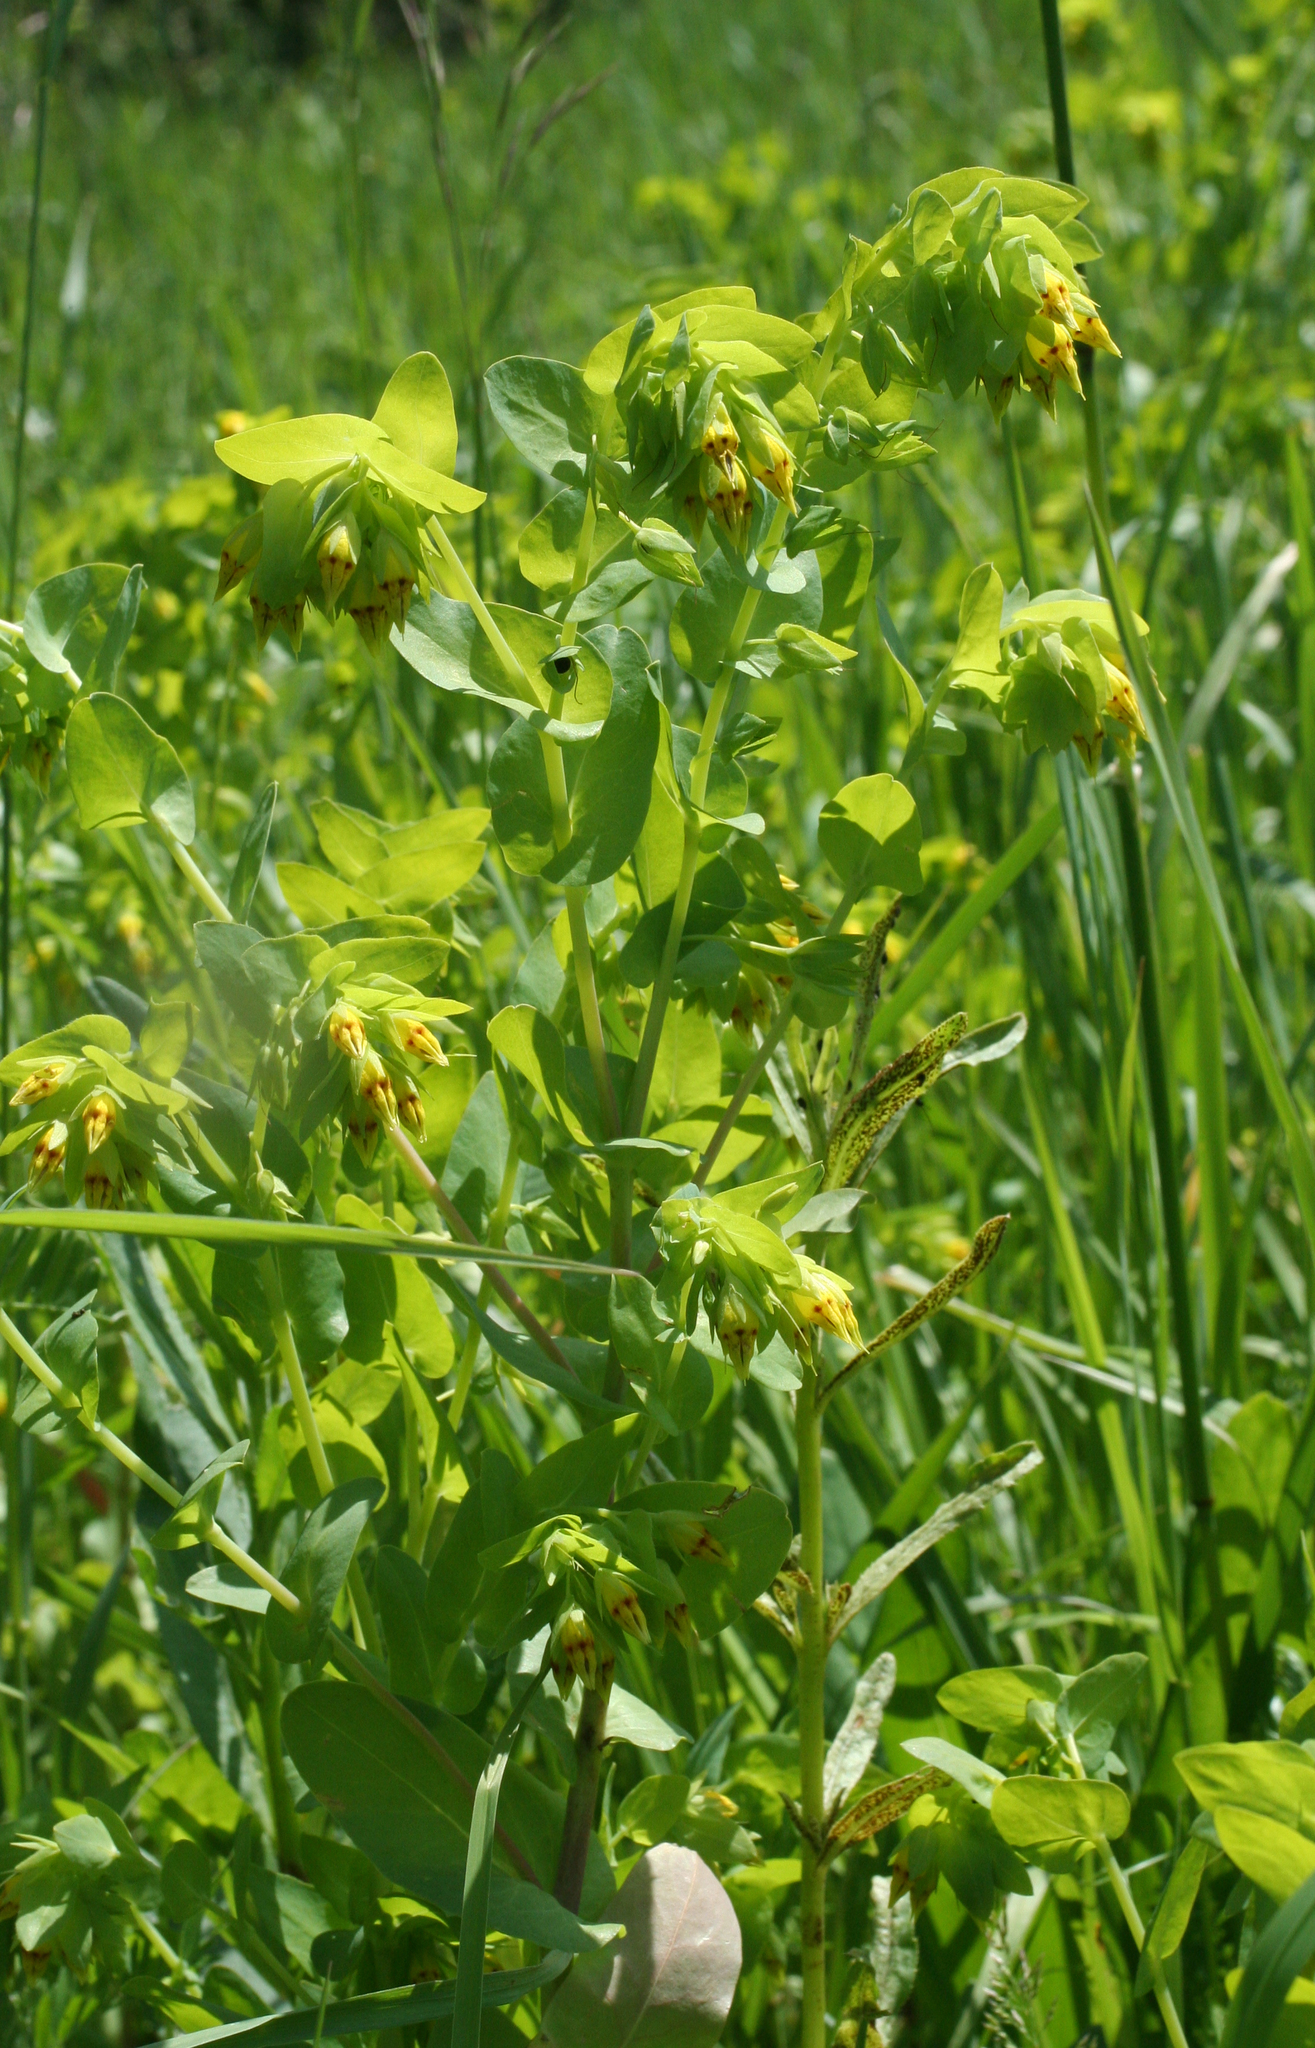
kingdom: Plantae
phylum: Tracheophyta
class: Magnoliopsida
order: Boraginales
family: Boraginaceae
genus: Cerinthe
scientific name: Cerinthe minor
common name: Lesser honeywort
